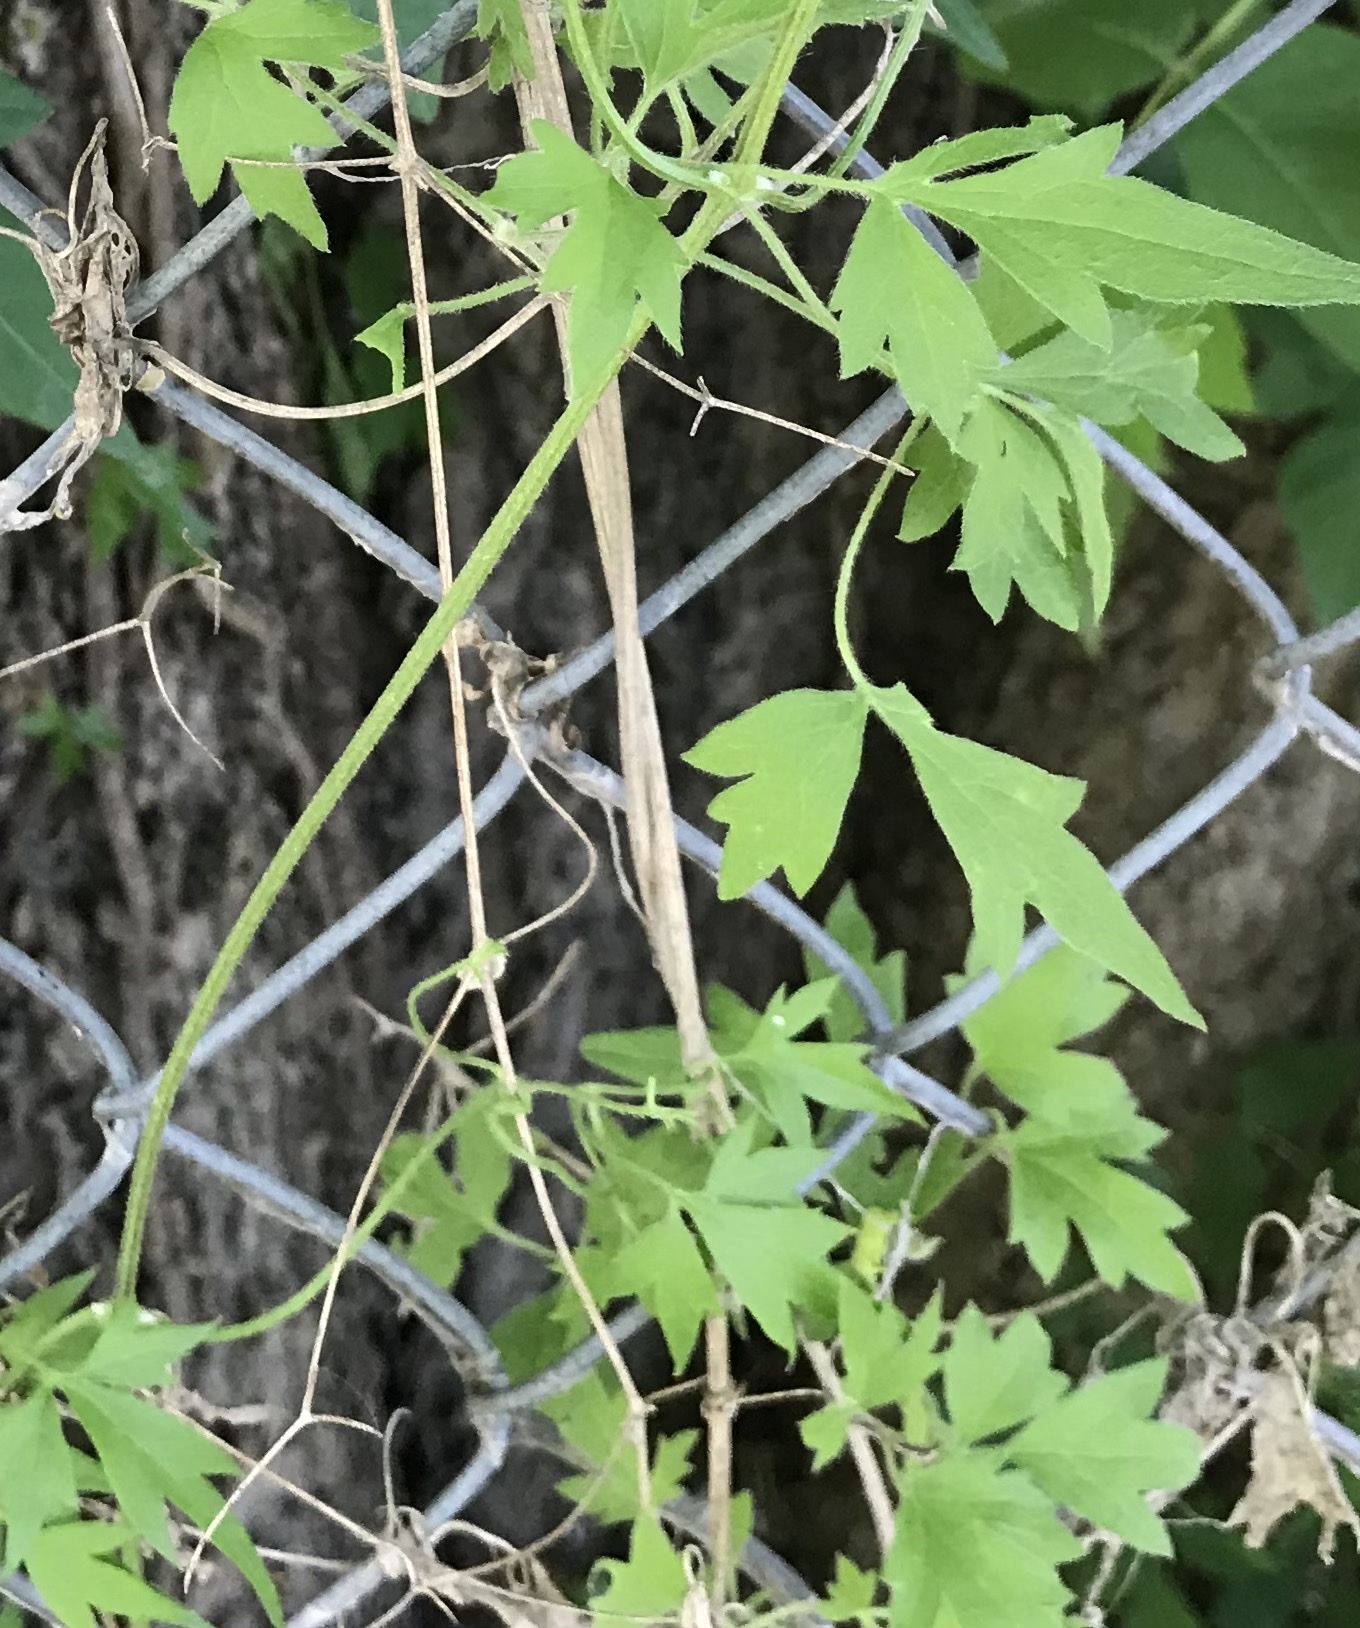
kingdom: Plantae
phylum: Tracheophyta
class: Magnoliopsida
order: Ranunculales
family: Ranunculaceae
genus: Clematis
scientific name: Clematis drummondii
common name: Texas virgin's bower
